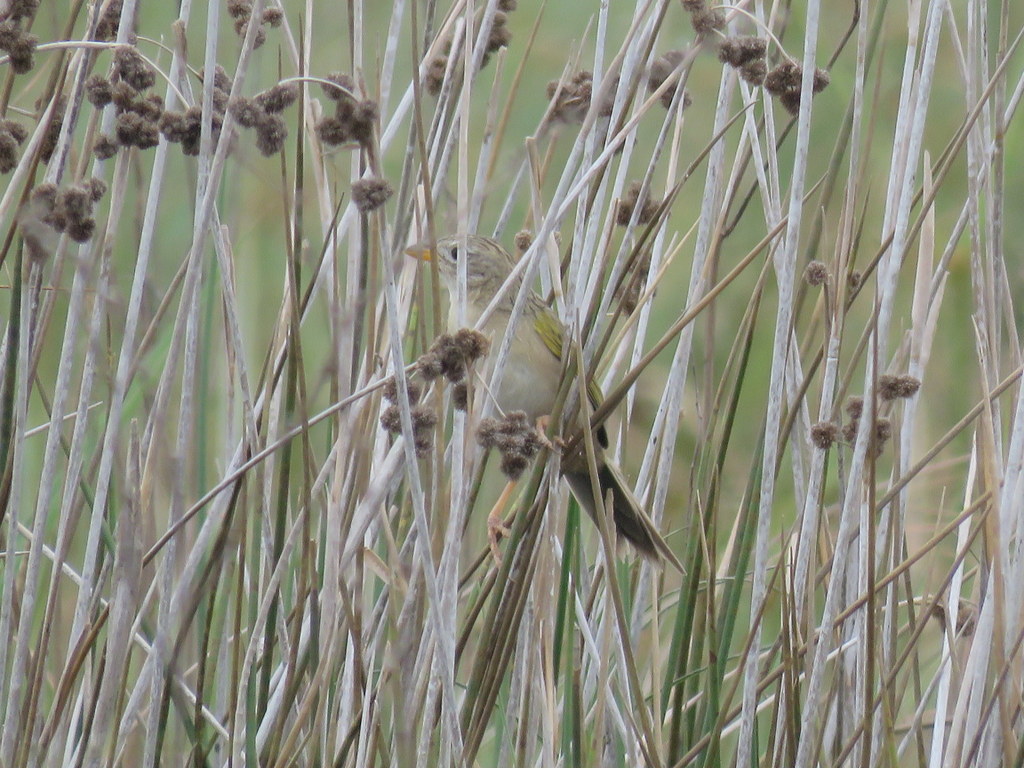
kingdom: Animalia
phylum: Chordata
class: Aves
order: Passeriformes
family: Thraupidae
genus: Emberizoides
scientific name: Emberizoides herbicola
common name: Wedge-tailed grass-finch
